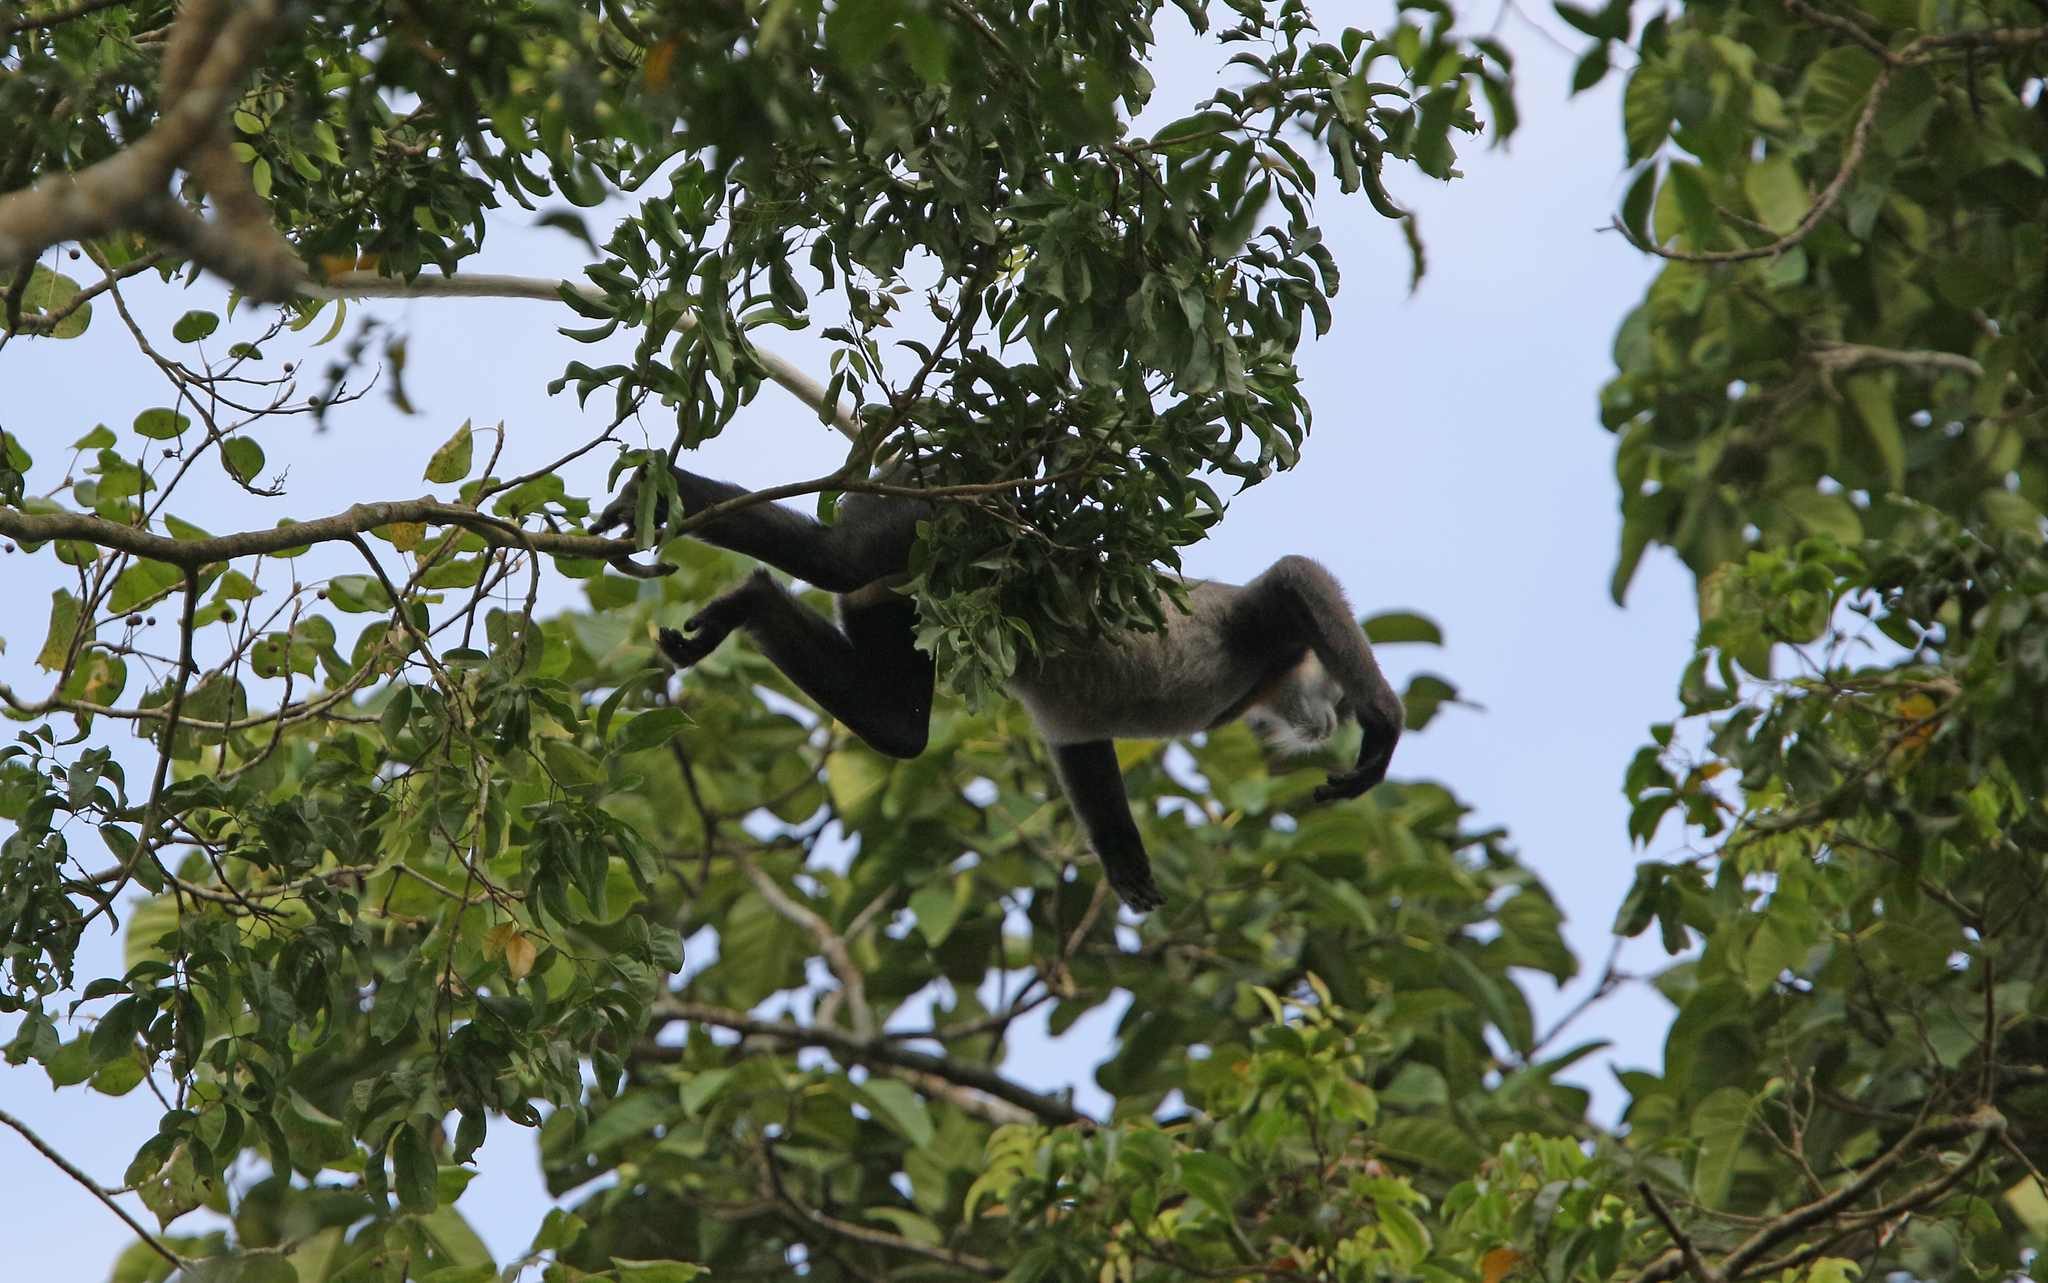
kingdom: Animalia
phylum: Chordata
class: Mammalia
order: Primates
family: Cercopithecidae
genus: Pygathrix
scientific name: Pygathrix nigripes
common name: Black-shanked douc
